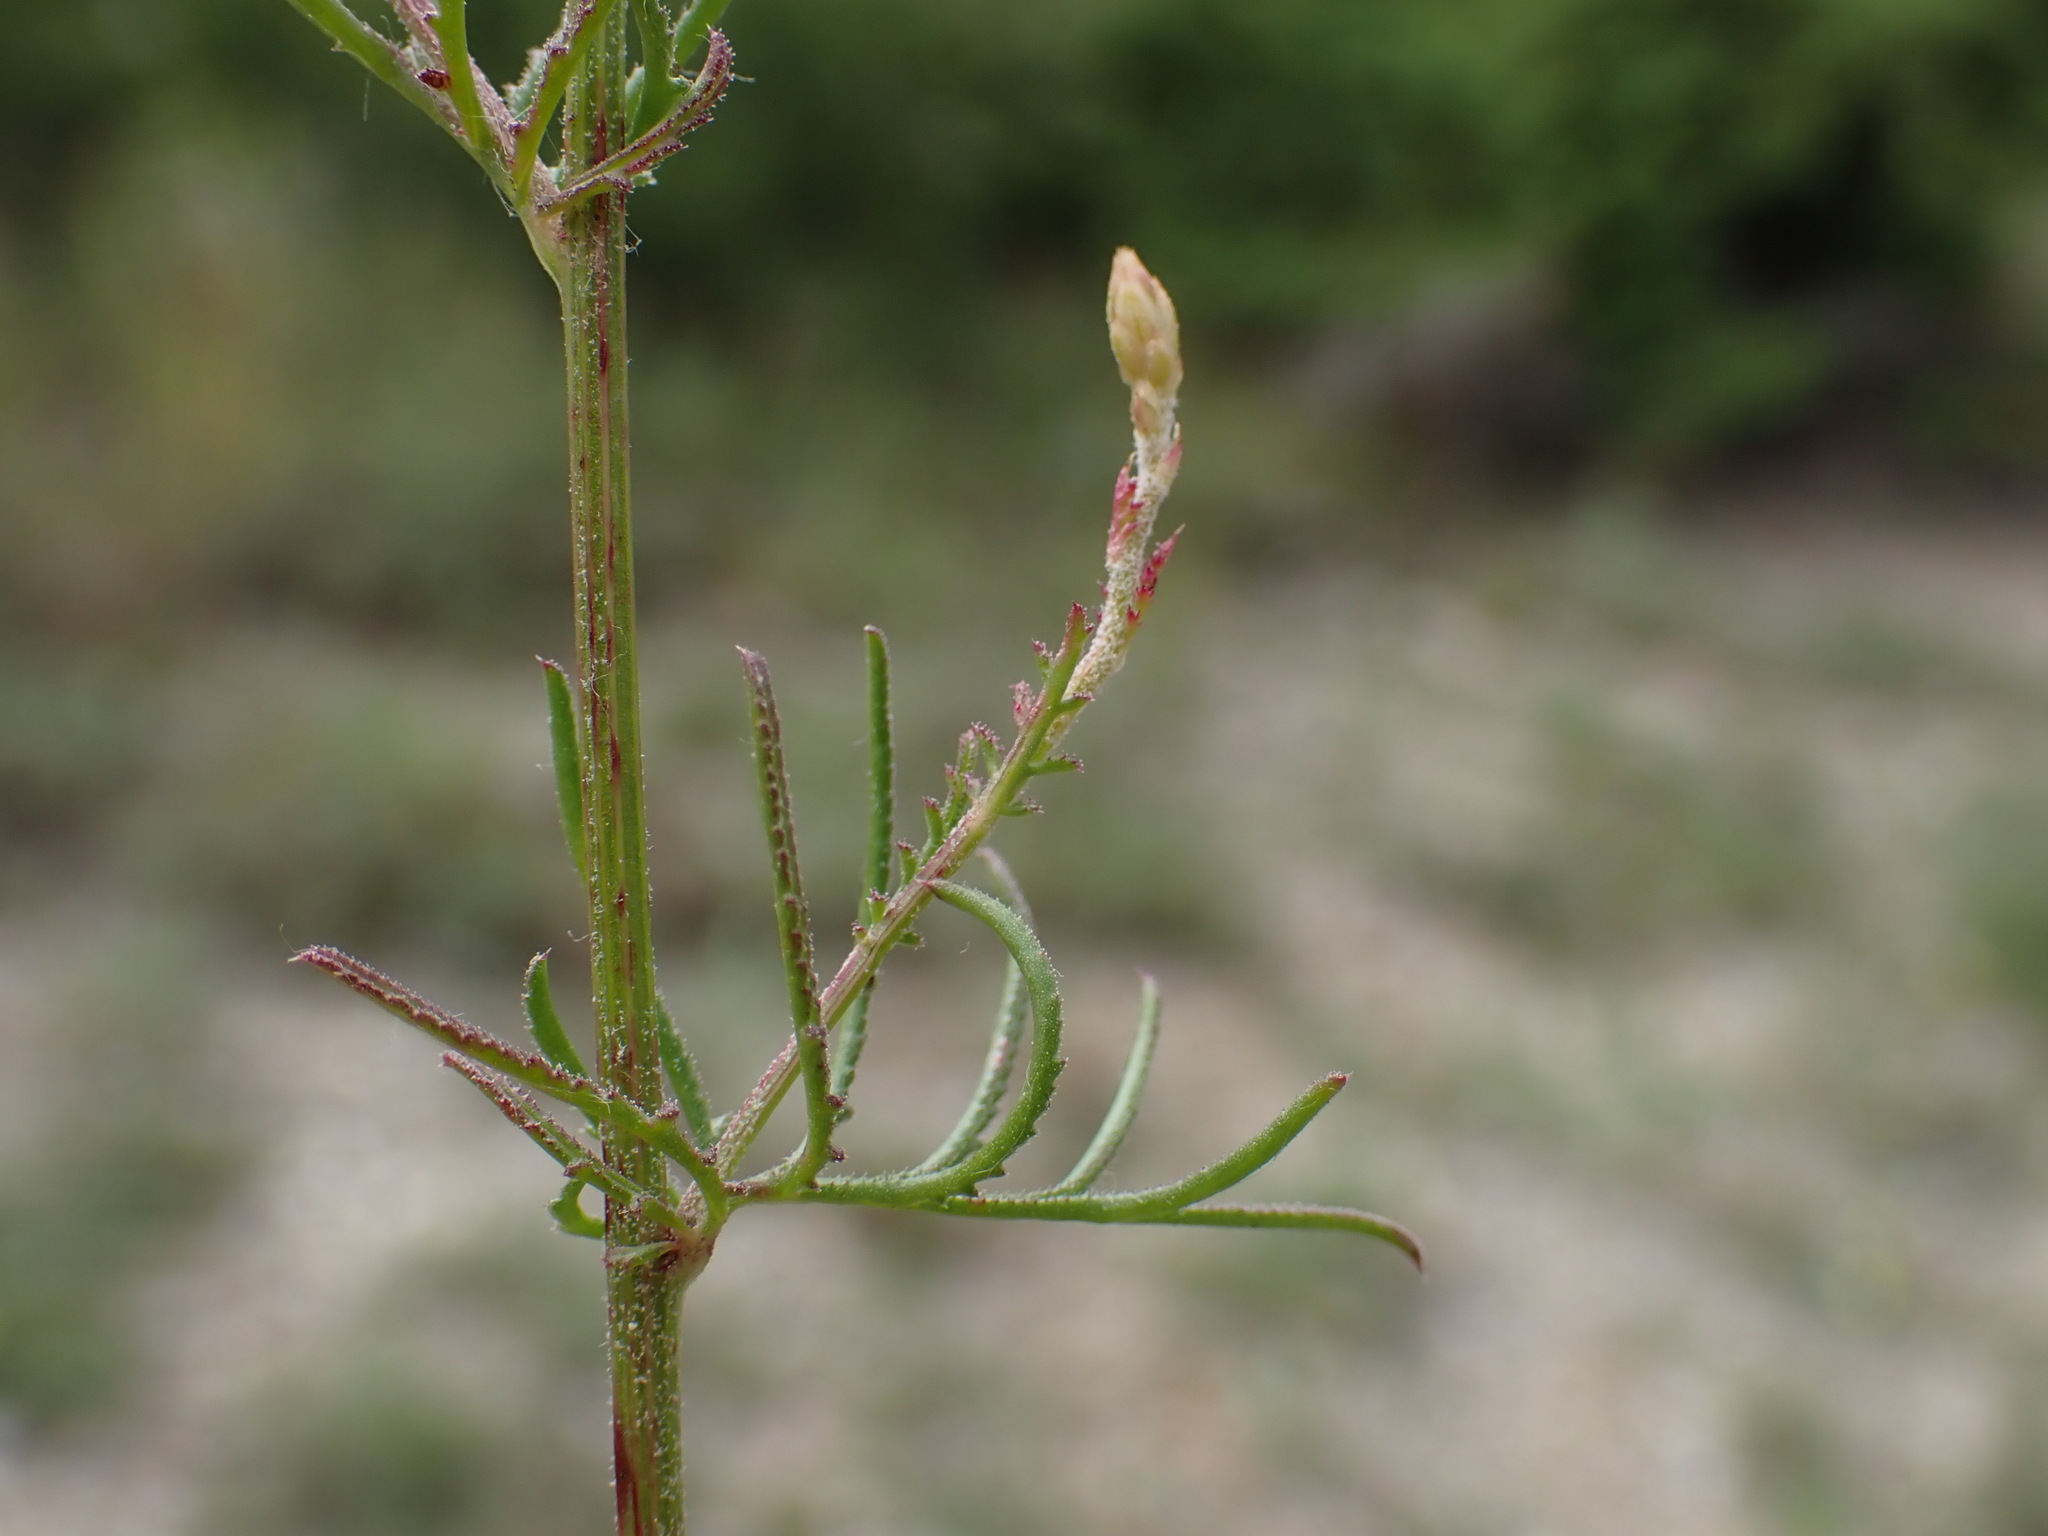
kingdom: Plantae
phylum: Tracheophyta
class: Magnoliopsida
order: Asterales
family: Asteraceae
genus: Crupina
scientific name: Crupina vulgaris
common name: Common crupina
